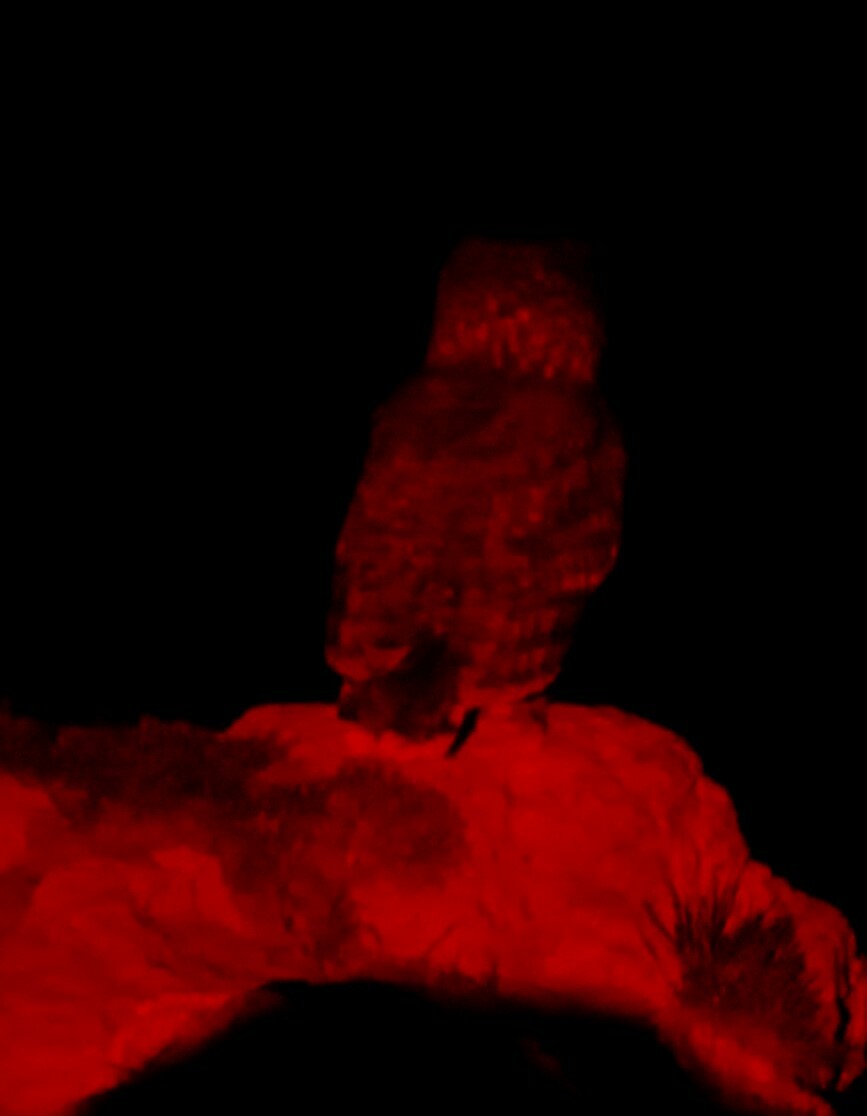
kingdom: Animalia
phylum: Chordata
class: Aves
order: Strigiformes
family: Strigidae
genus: Bubo
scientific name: Bubo africanus
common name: Spotted eagle-owl
